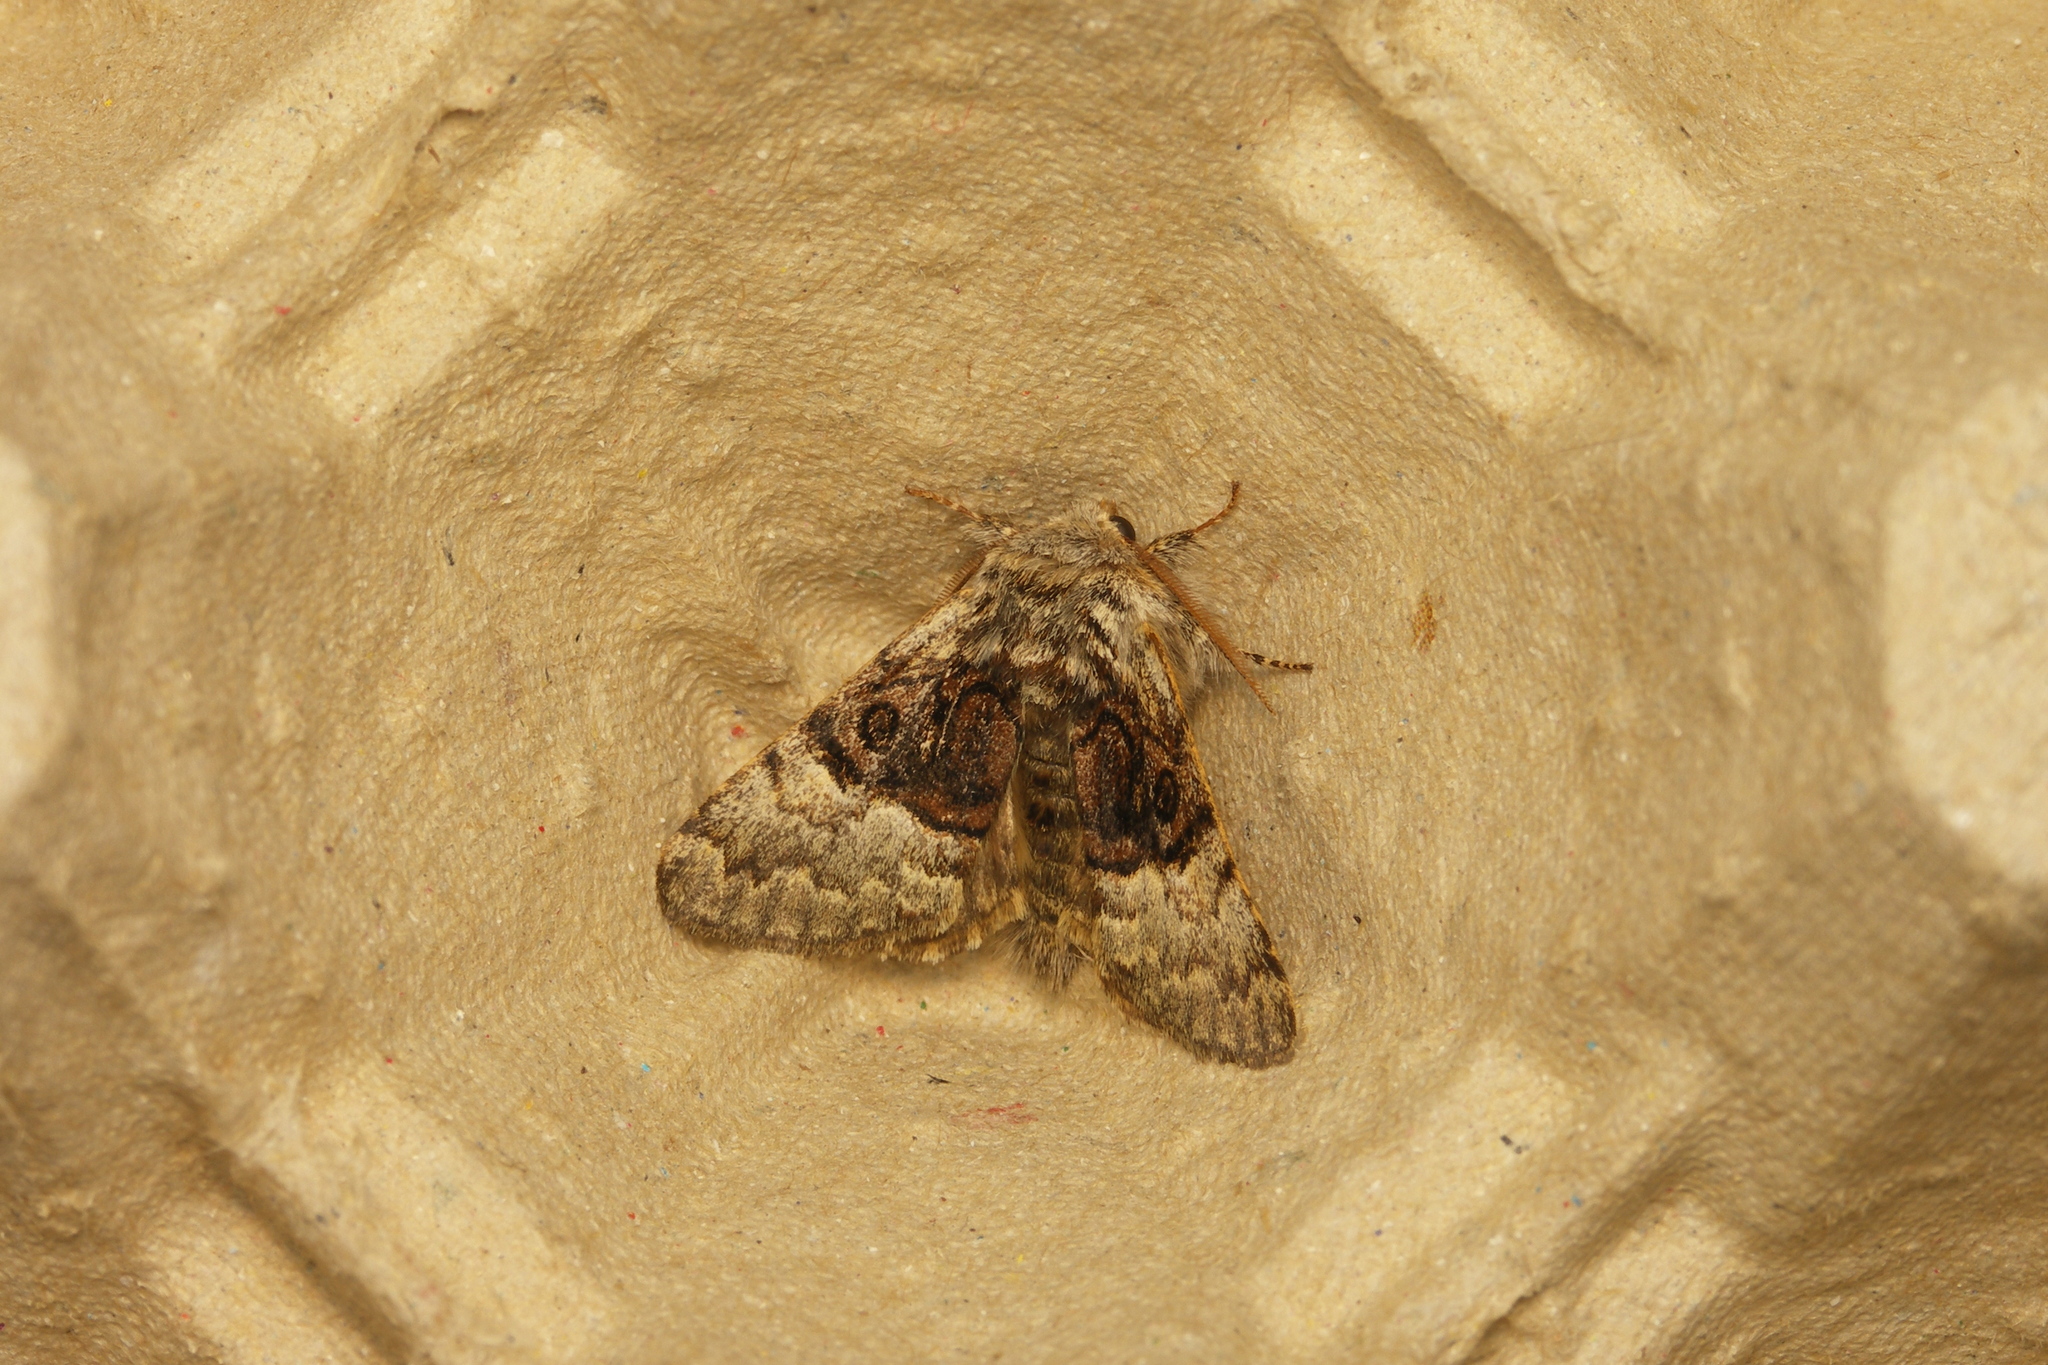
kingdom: Animalia
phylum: Arthropoda
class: Insecta
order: Lepidoptera
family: Noctuidae
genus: Colocasia
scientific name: Colocasia coryli
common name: Nut-tree tussock
